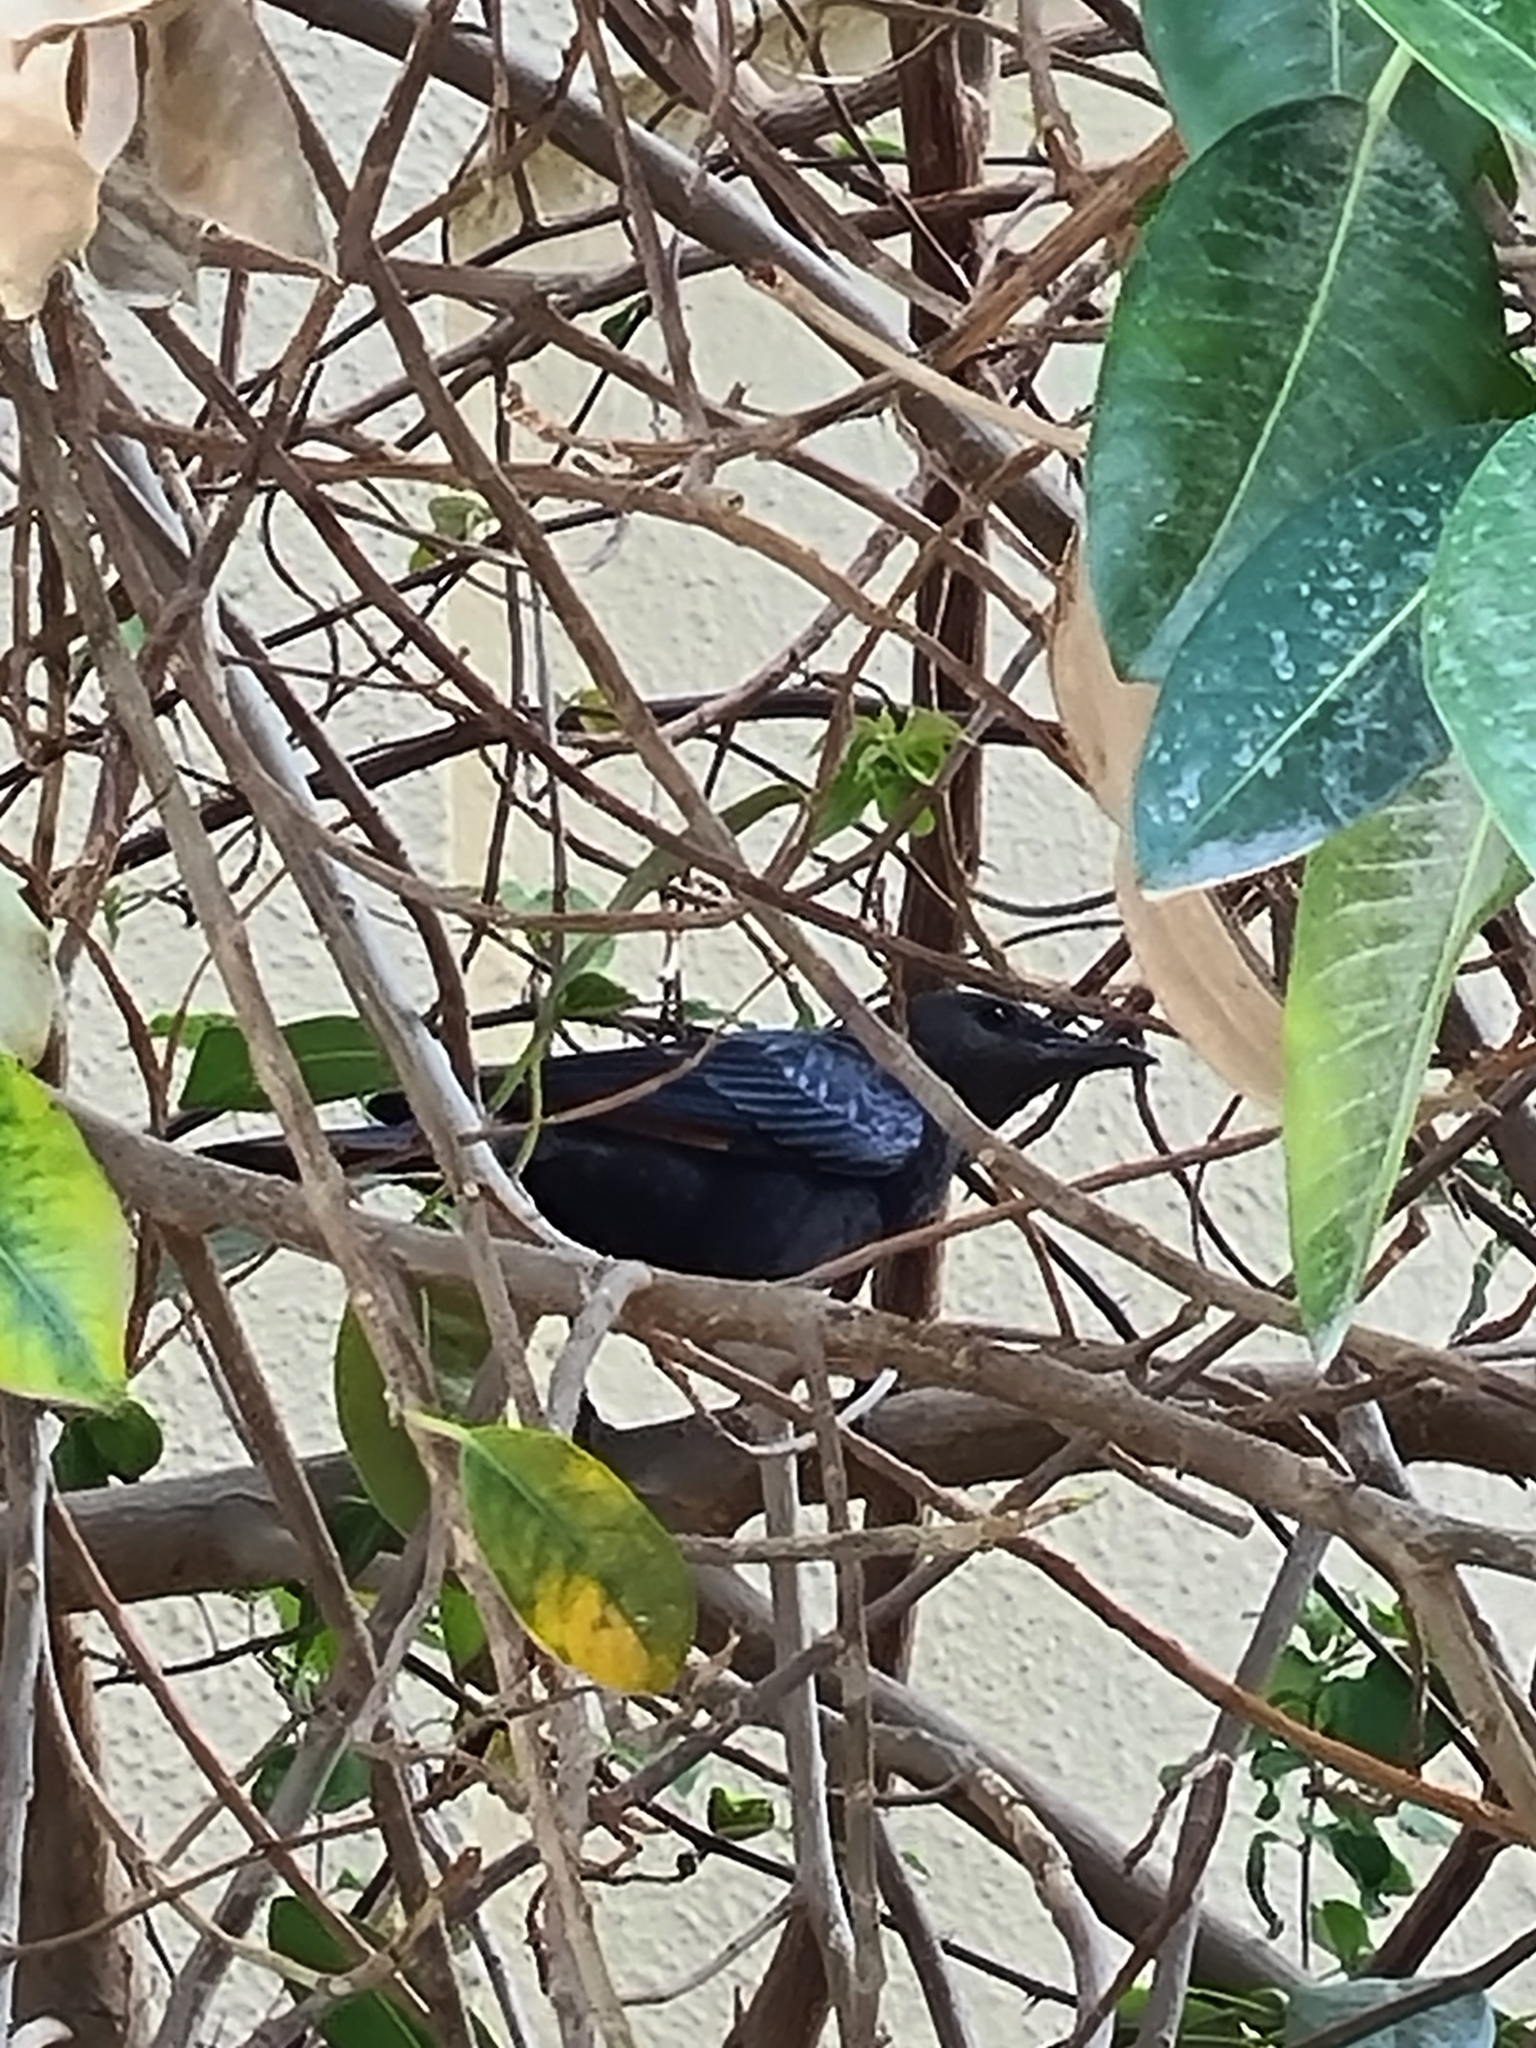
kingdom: Animalia
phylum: Chordata
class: Aves
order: Passeriformes
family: Sturnidae
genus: Onychognathus
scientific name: Onychognathus tristramii
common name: Tristram's starling
